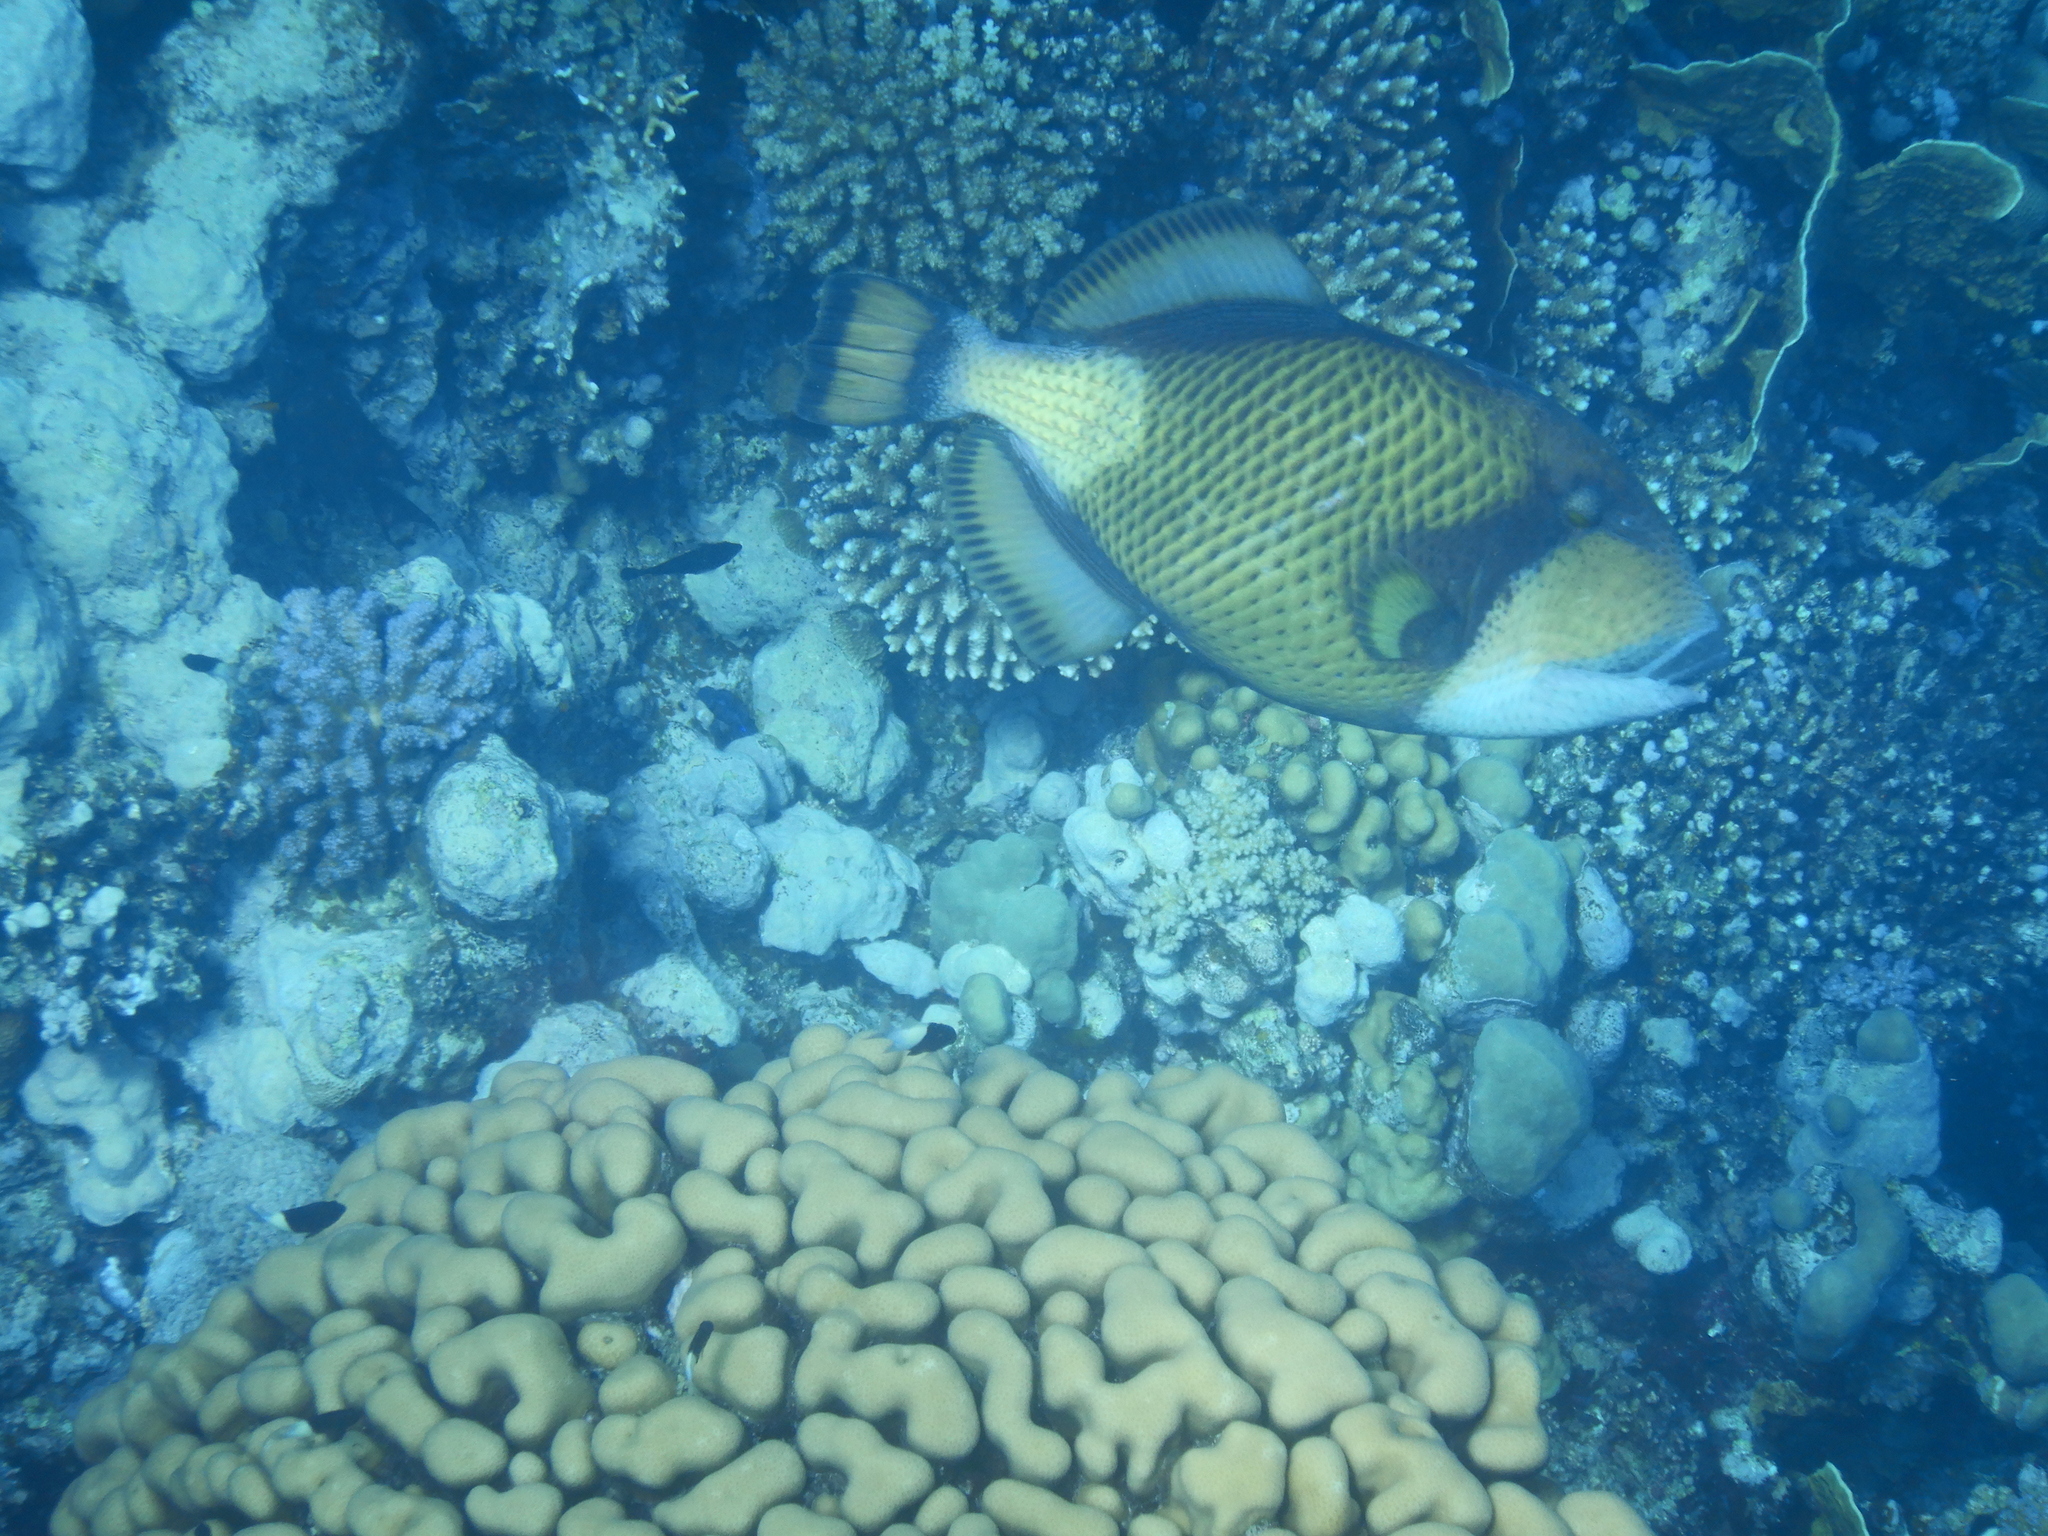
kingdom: Animalia
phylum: Chordata
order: Tetraodontiformes
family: Balistidae
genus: Balistoides
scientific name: Balistoides viridescens
